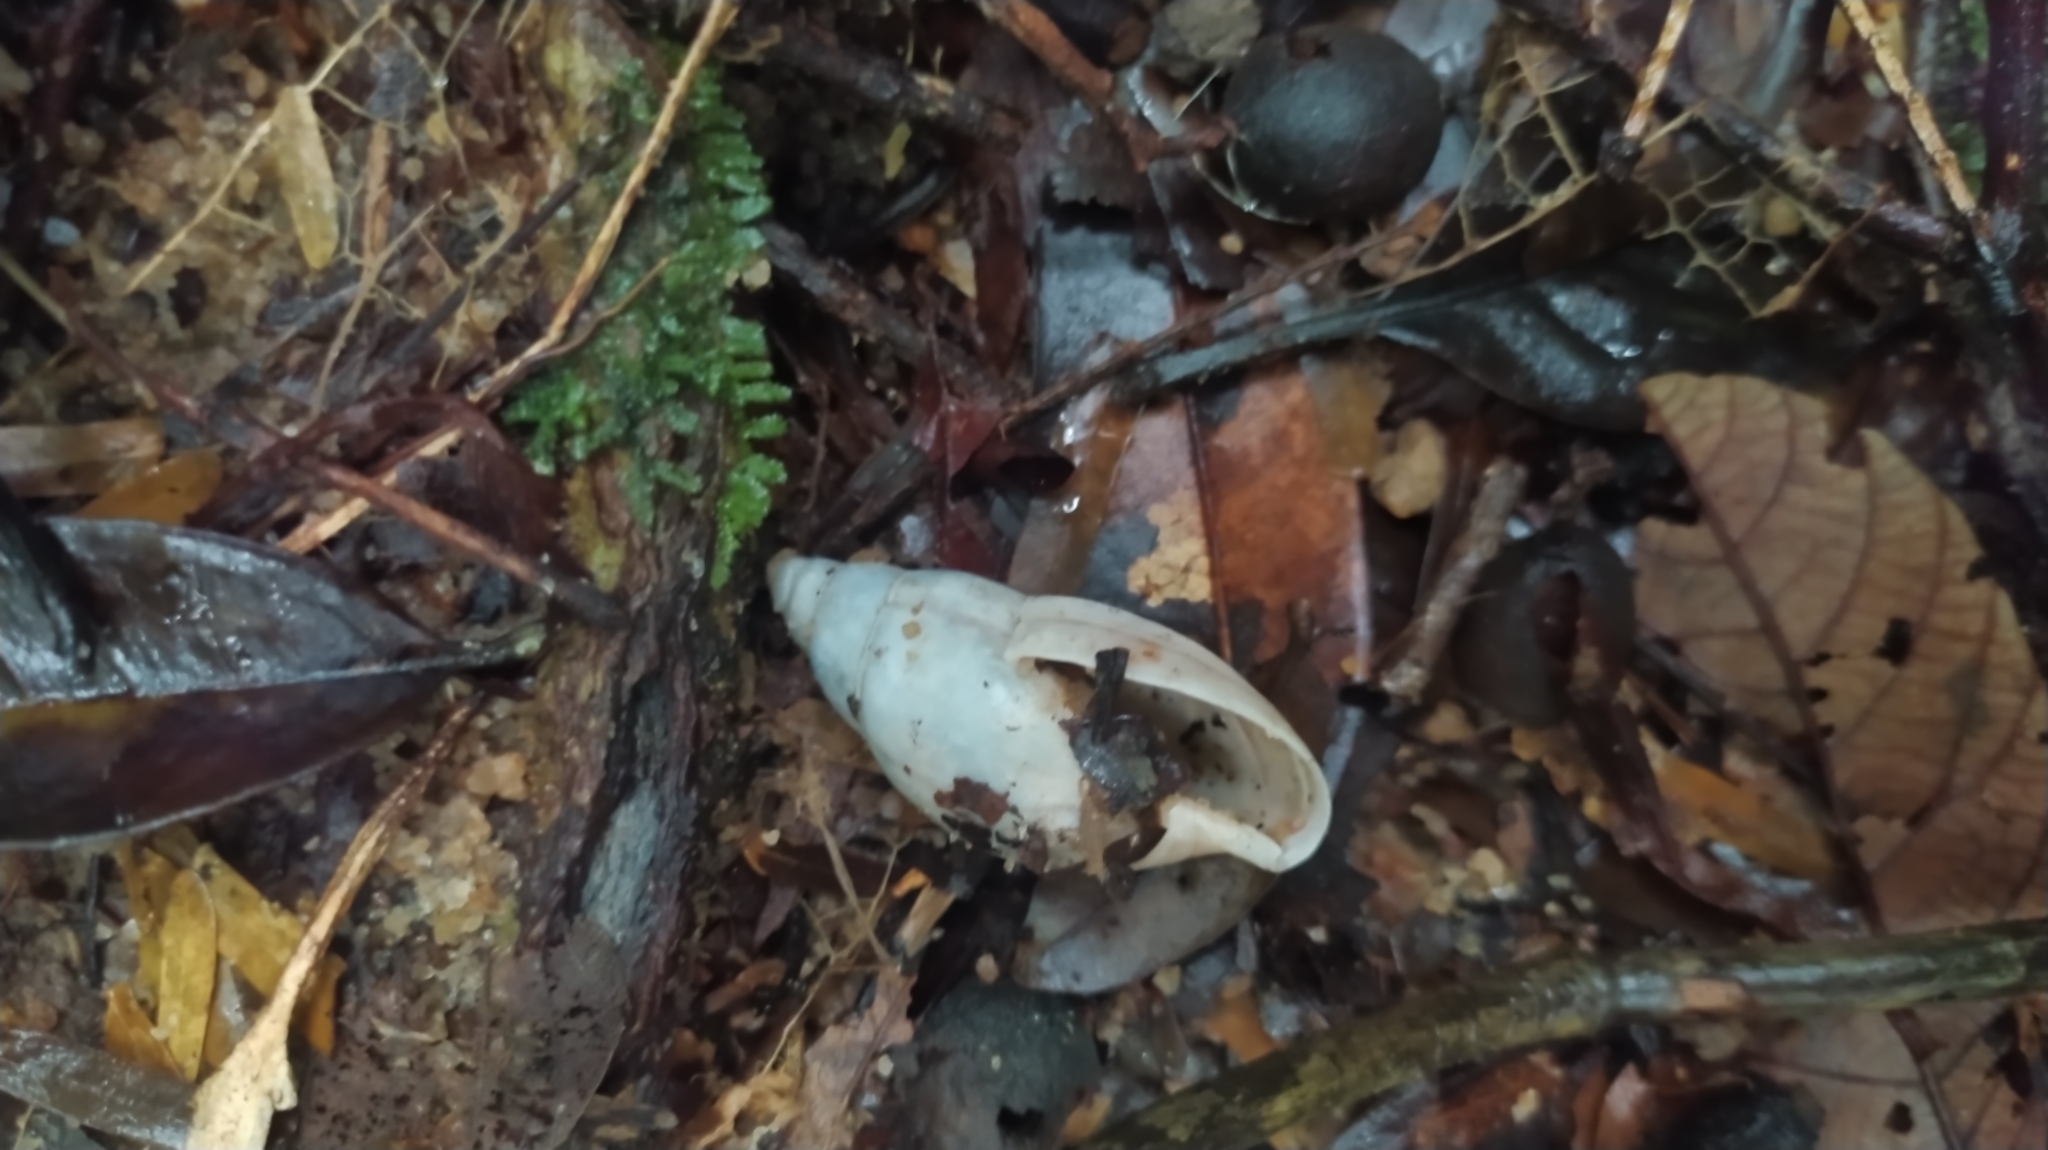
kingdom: Animalia
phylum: Mollusca
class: Gastropoda
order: Stylommatophora
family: Spiraxidae
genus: Euglandina
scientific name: Euglandina striata
